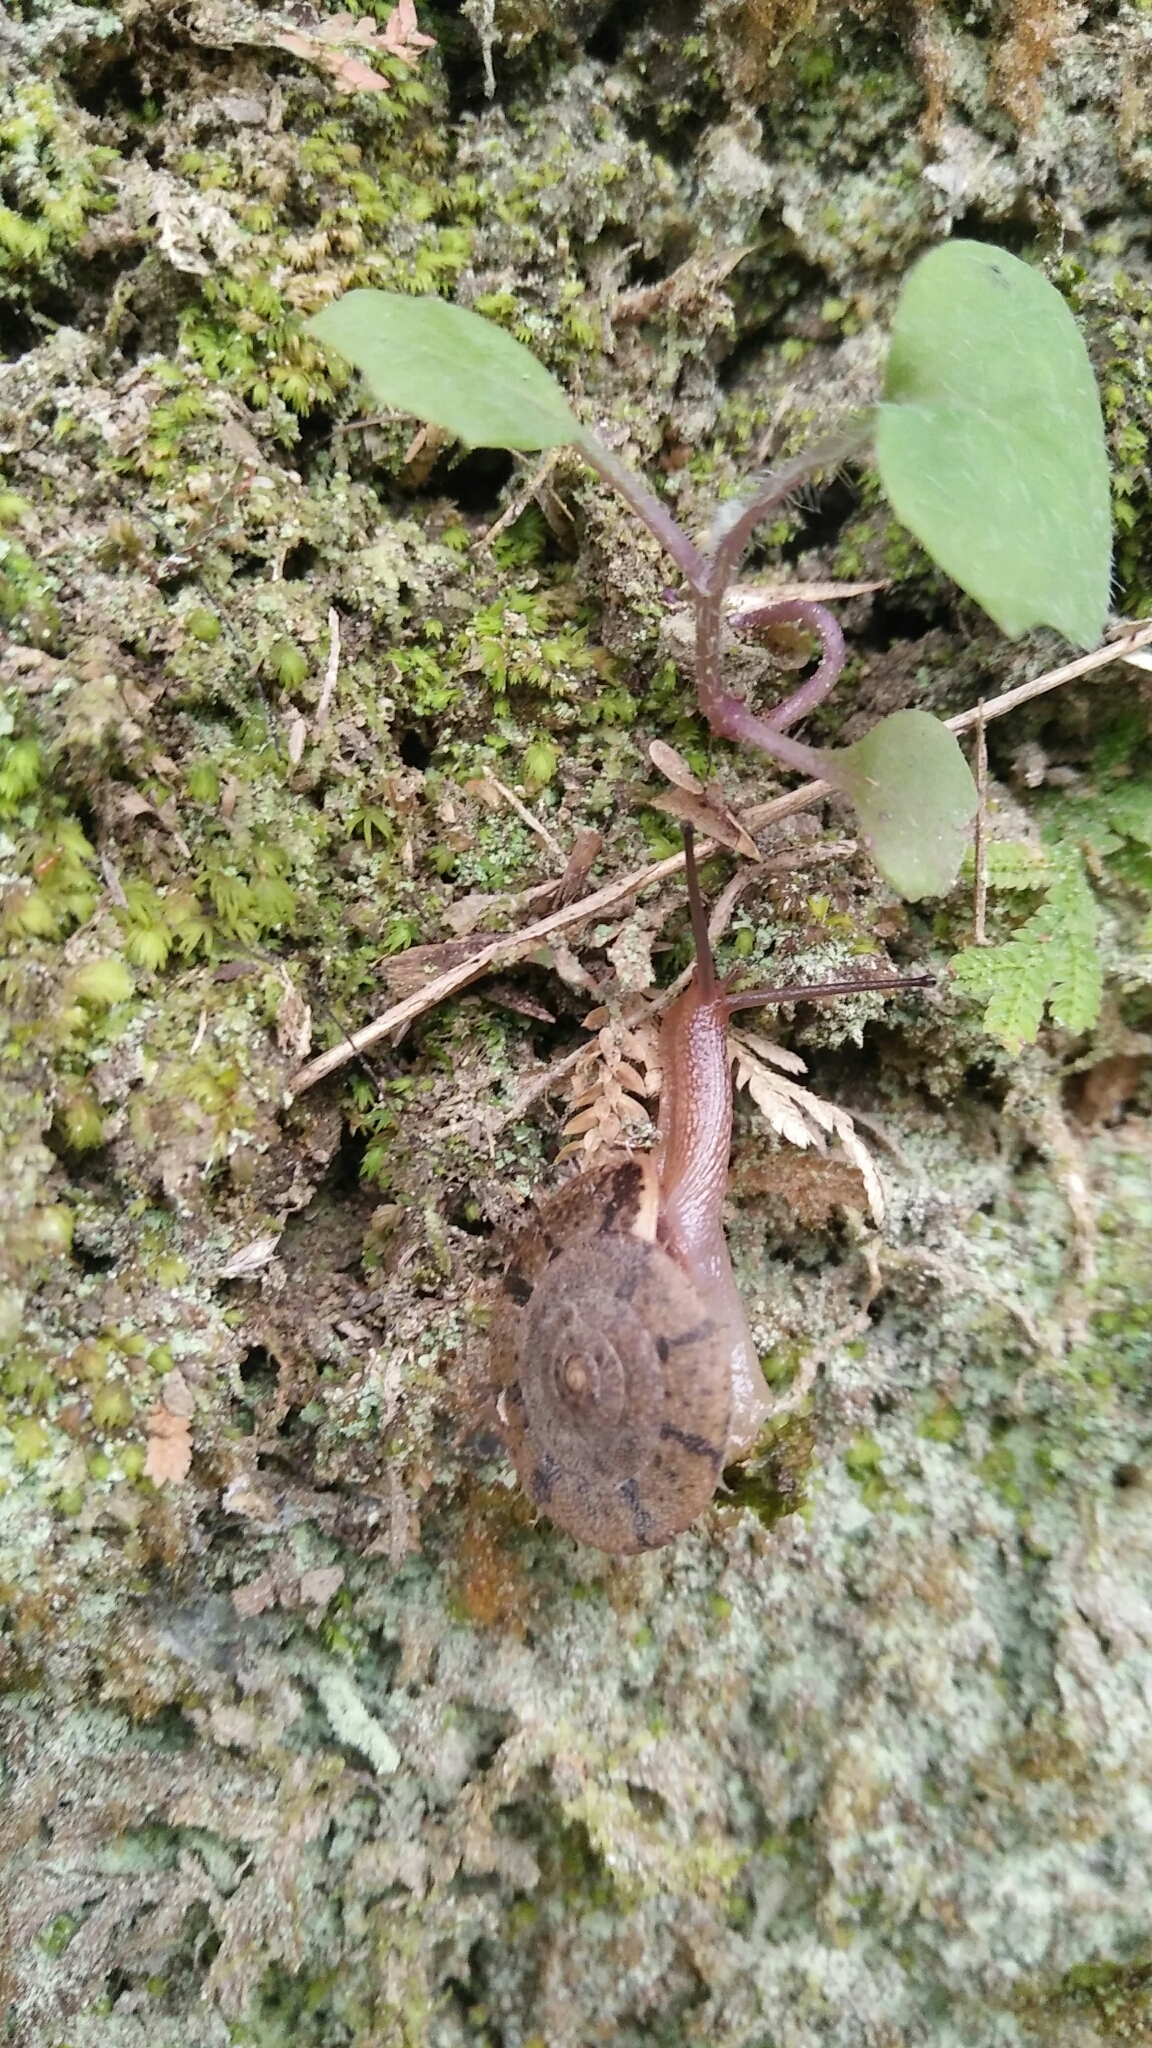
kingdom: Animalia
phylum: Mollusca
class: Gastropoda
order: Stylommatophora
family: Camaenidae
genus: Aegista
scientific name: Aegista impexa
